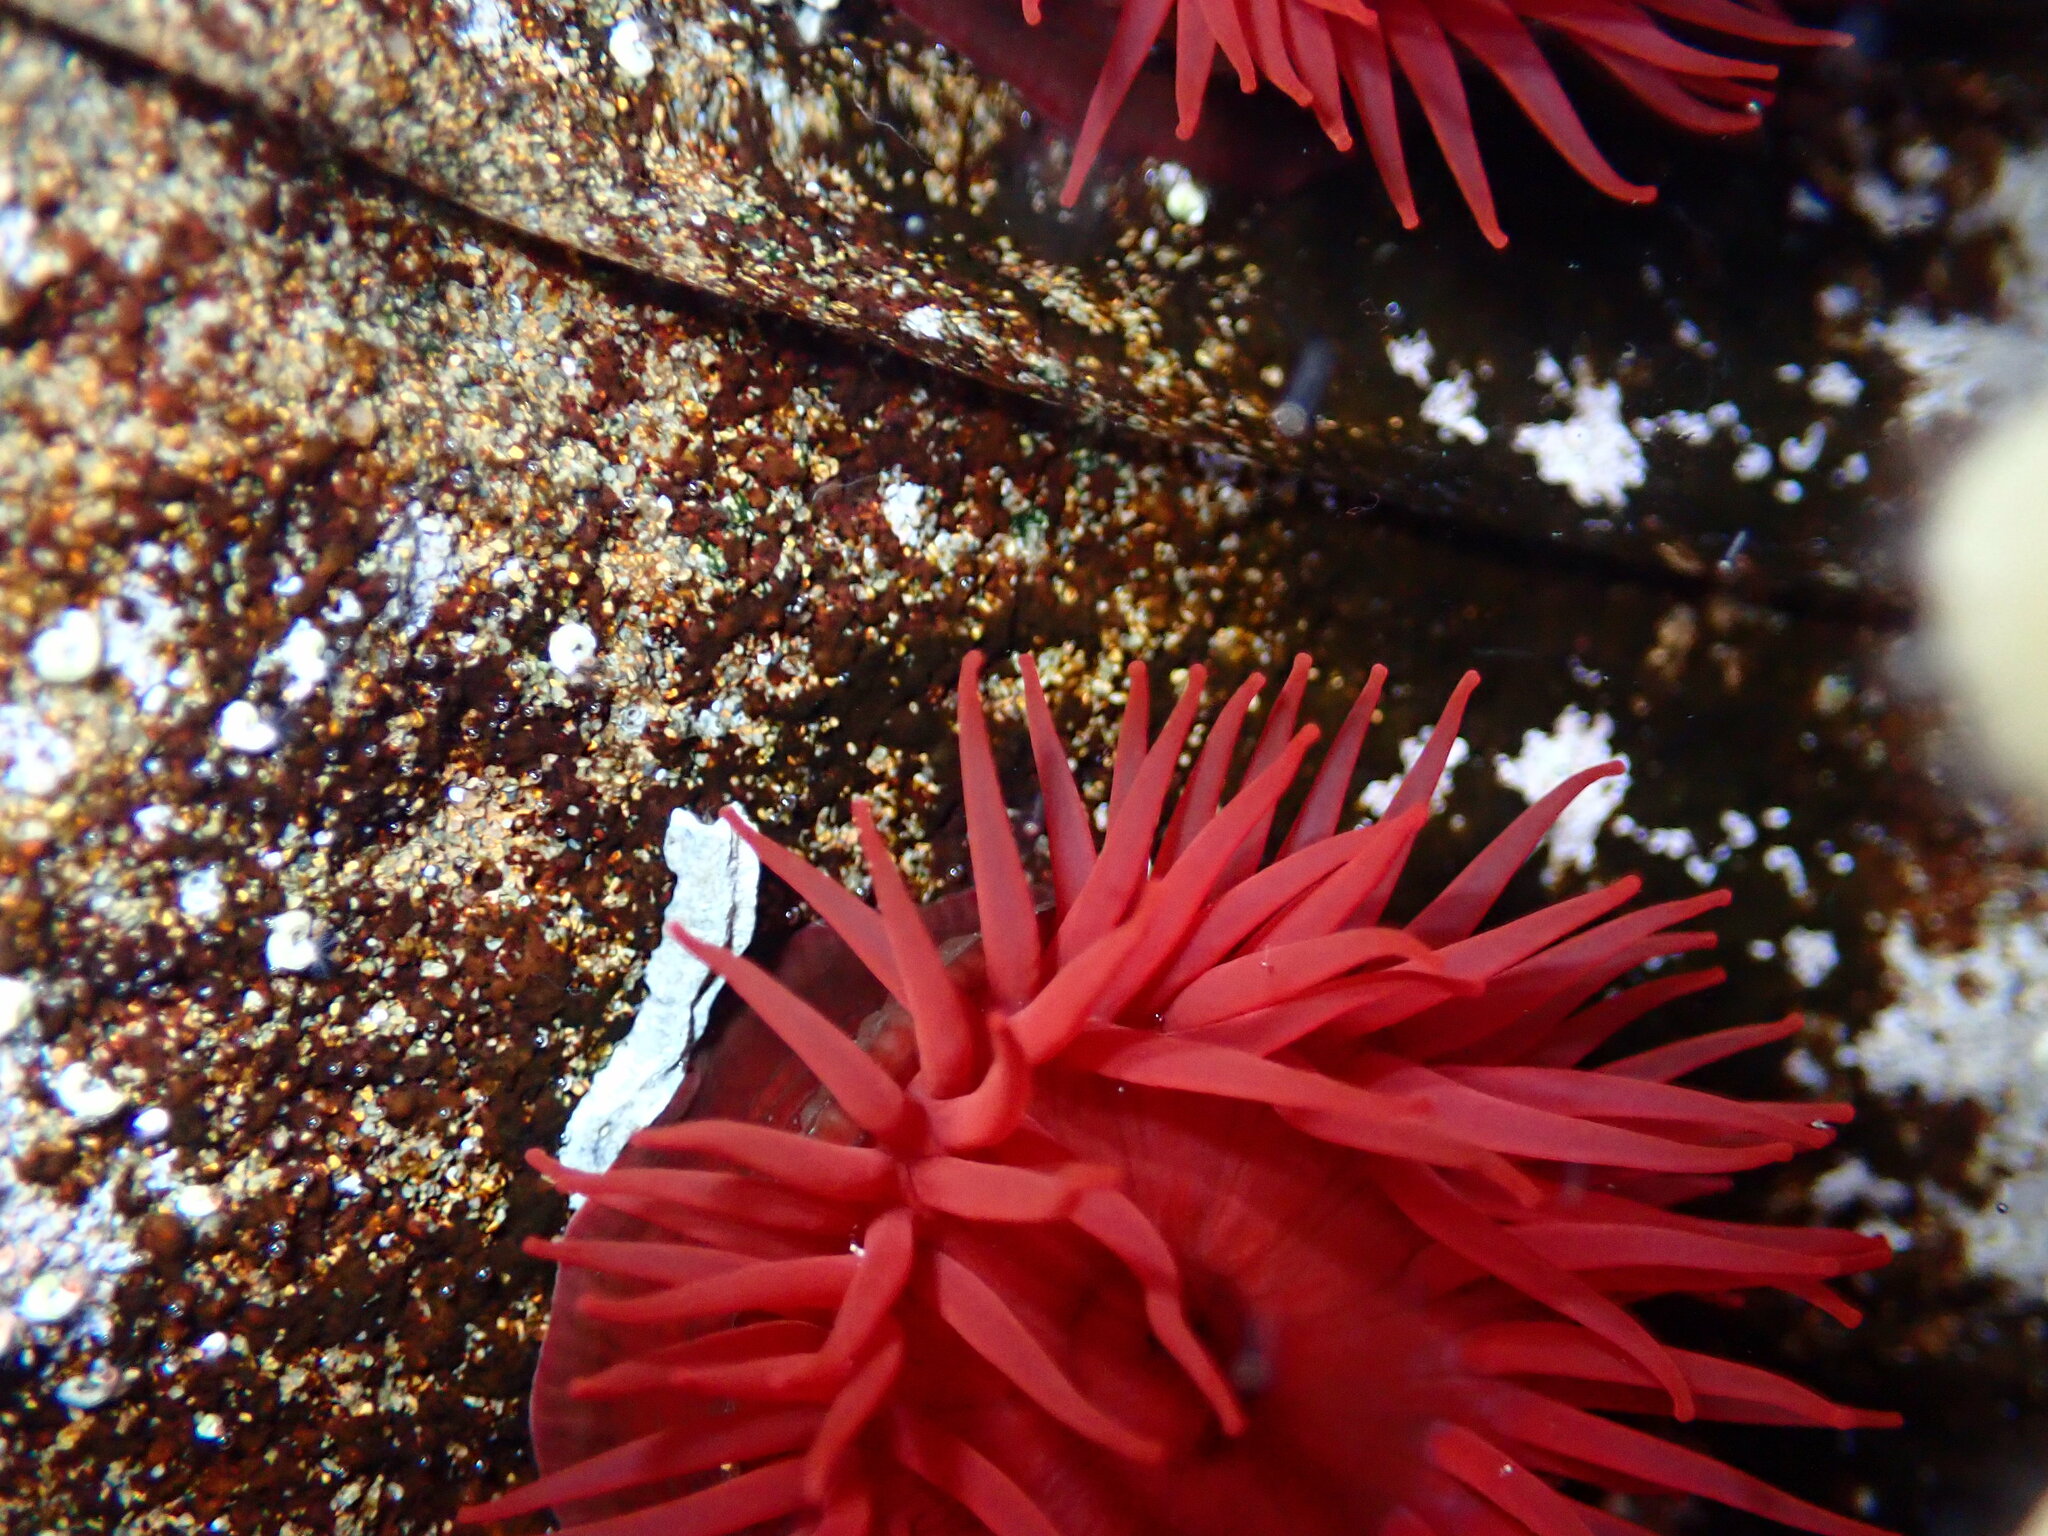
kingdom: Animalia
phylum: Cnidaria
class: Anthozoa
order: Actiniaria
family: Actiniidae
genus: Actinia
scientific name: Actinia tenebrosa
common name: Waratah anemone
